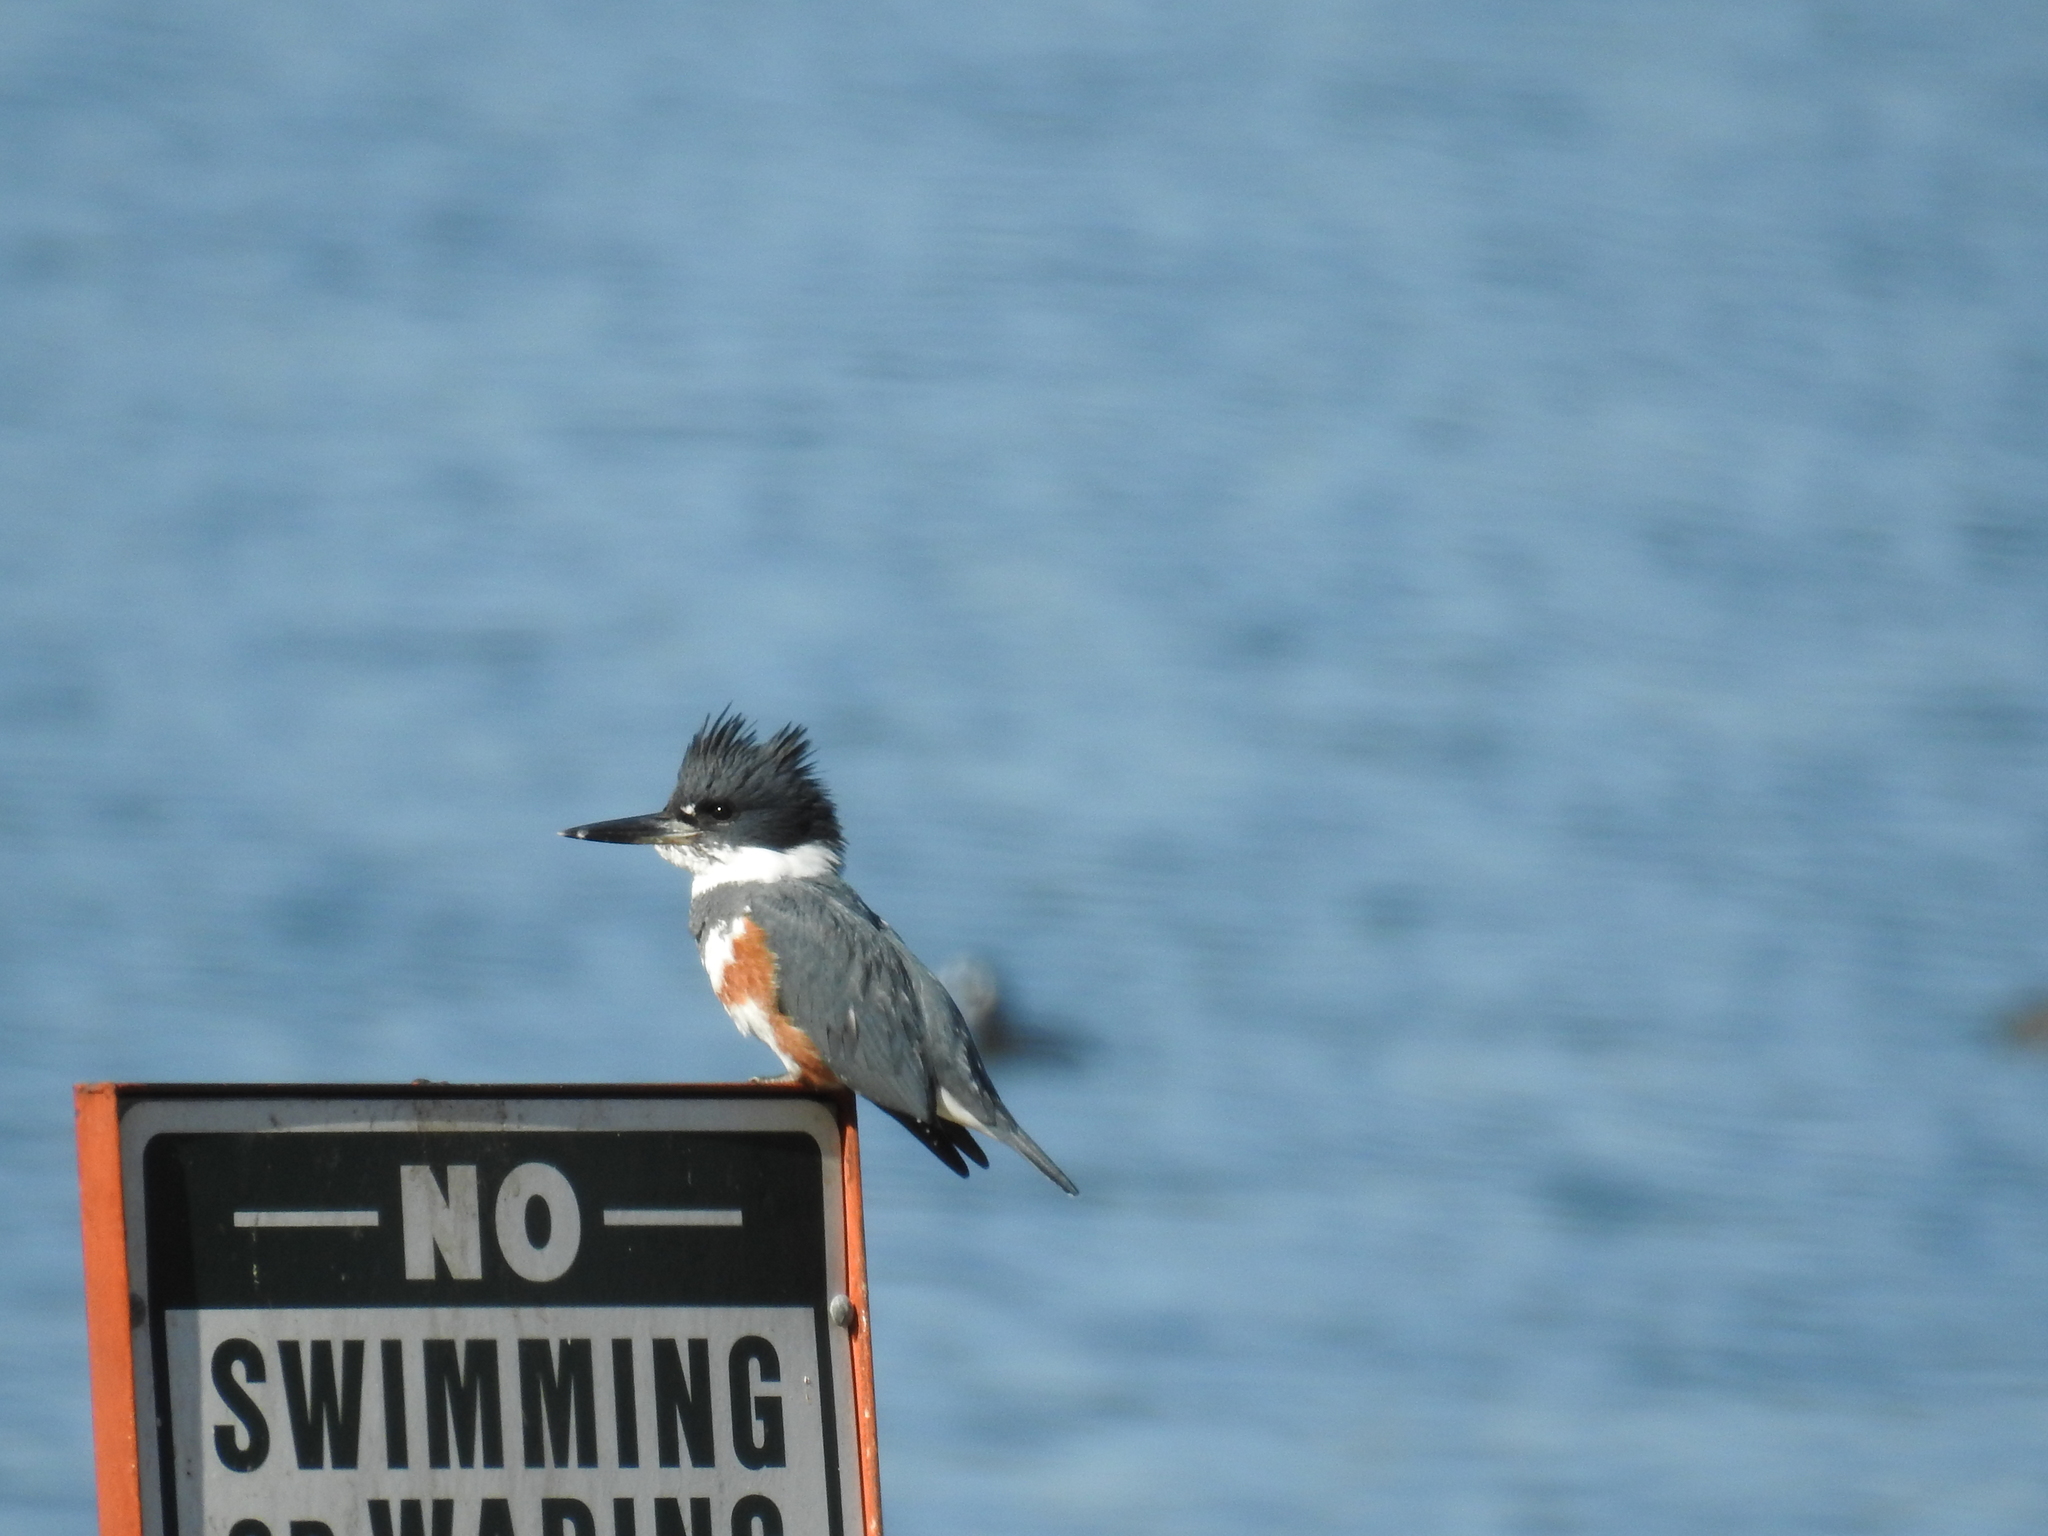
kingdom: Animalia
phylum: Chordata
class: Aves
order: Coraciiformes
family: Alcedinidae
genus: Megaceryle
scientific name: Megaceryle alcyon
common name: Belted kingfisher
